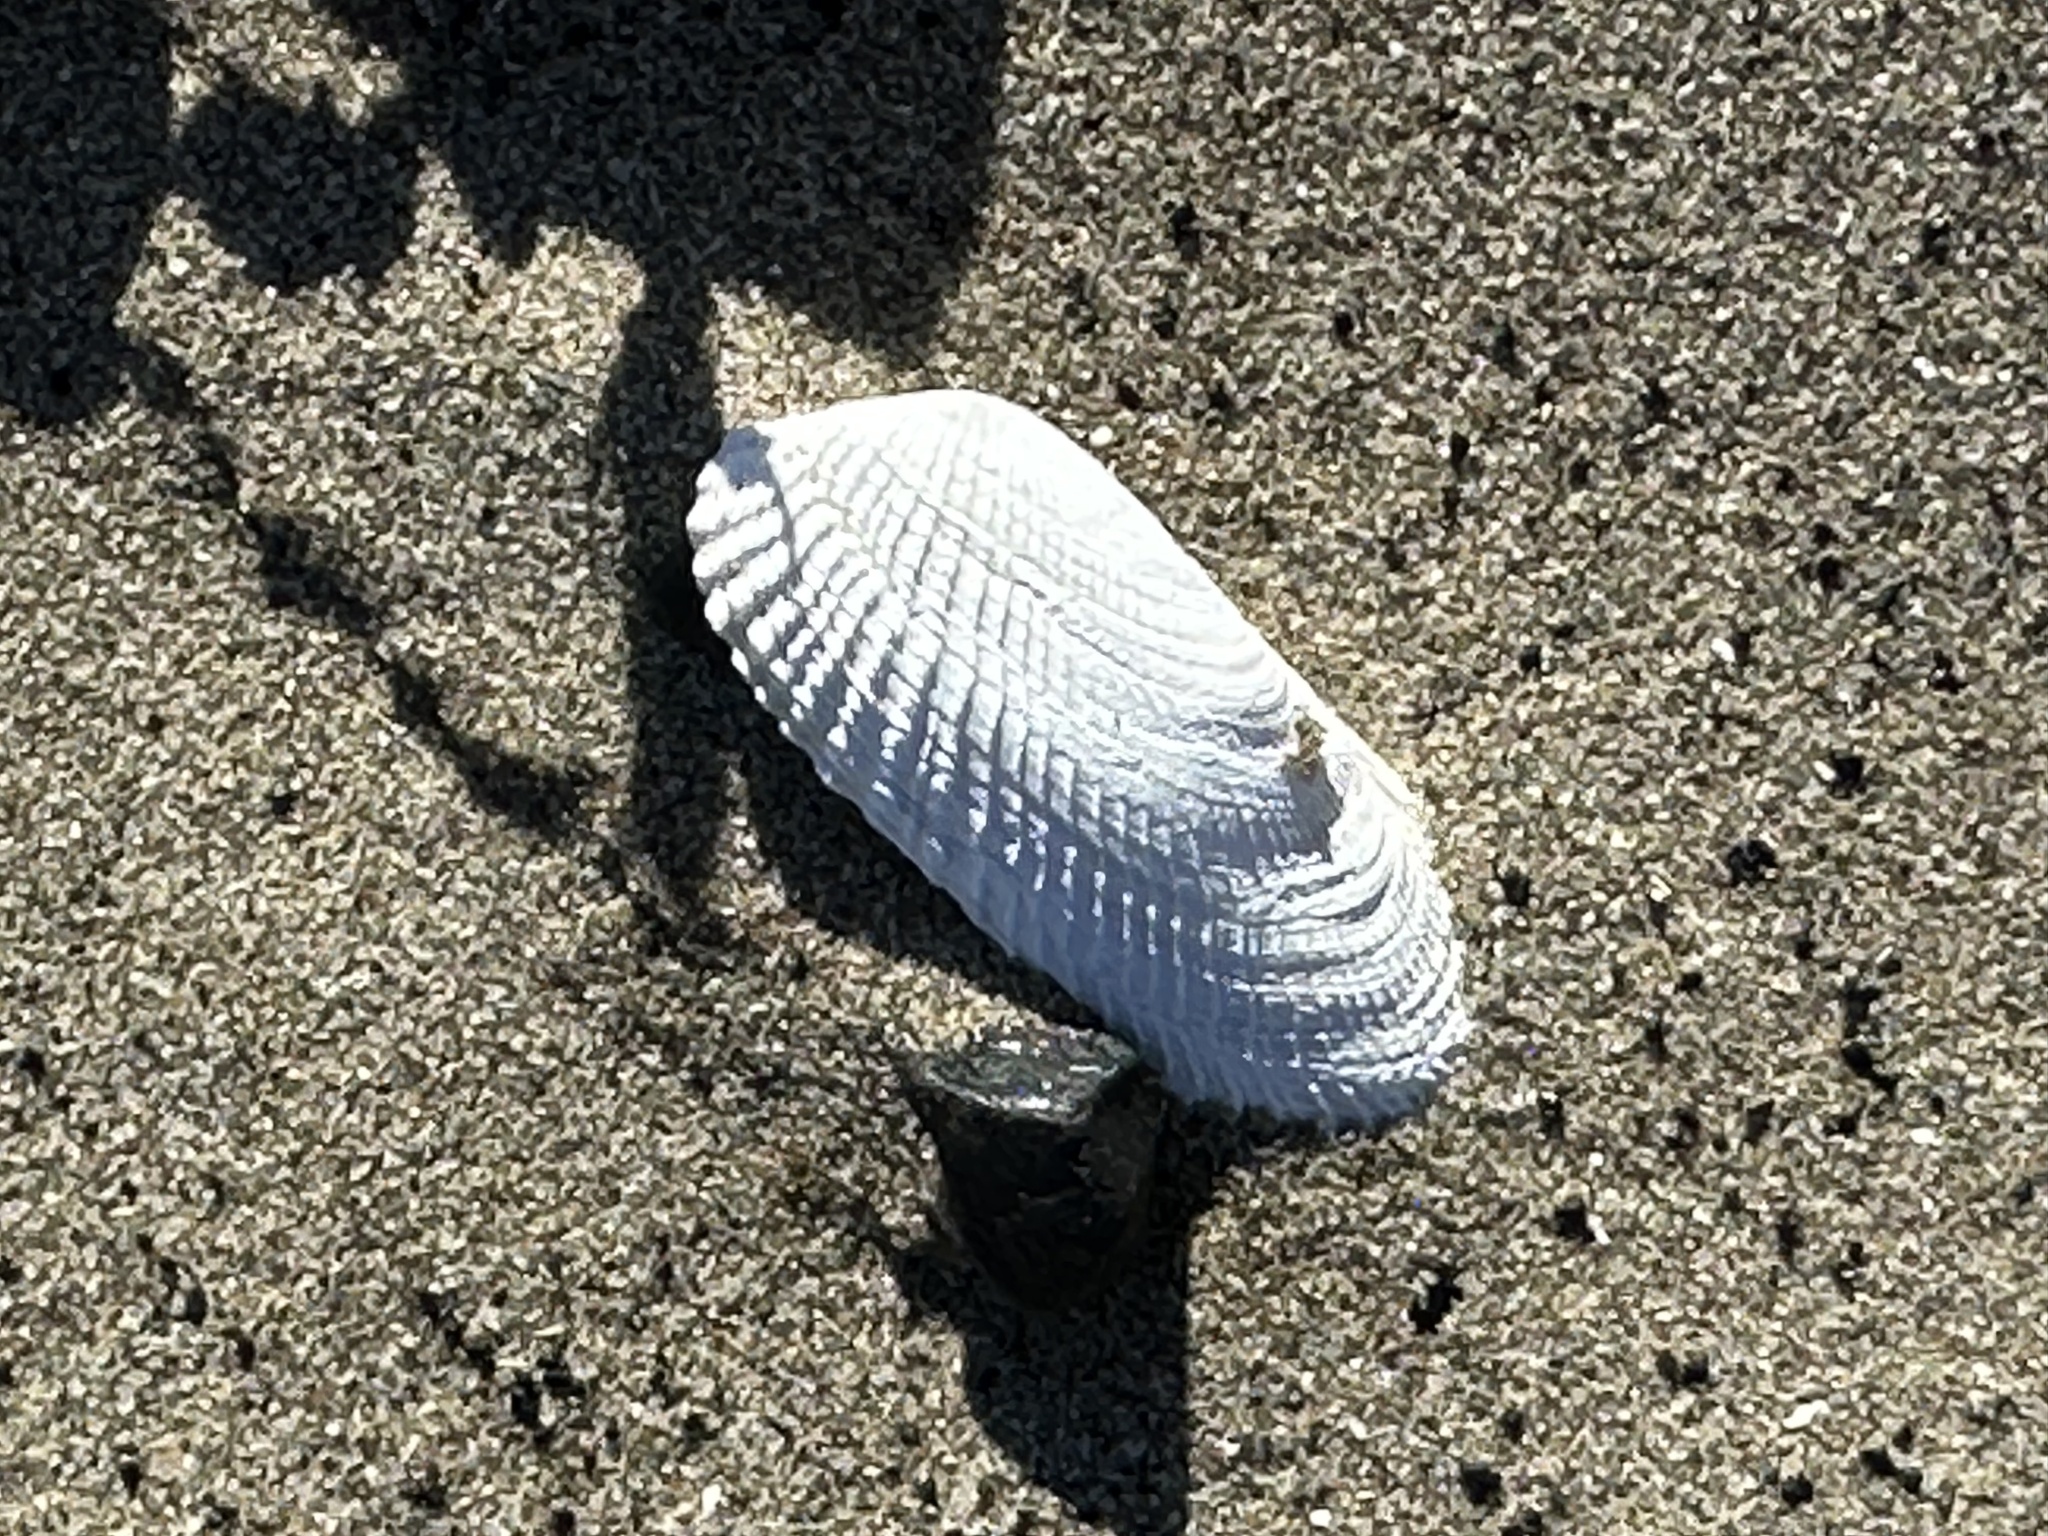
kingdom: Animalia
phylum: Mollusca
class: Bivalvia
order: Venerida
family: Veneridae
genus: Petricolaria
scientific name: Petricolaria pholadiformis
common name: American piddock
